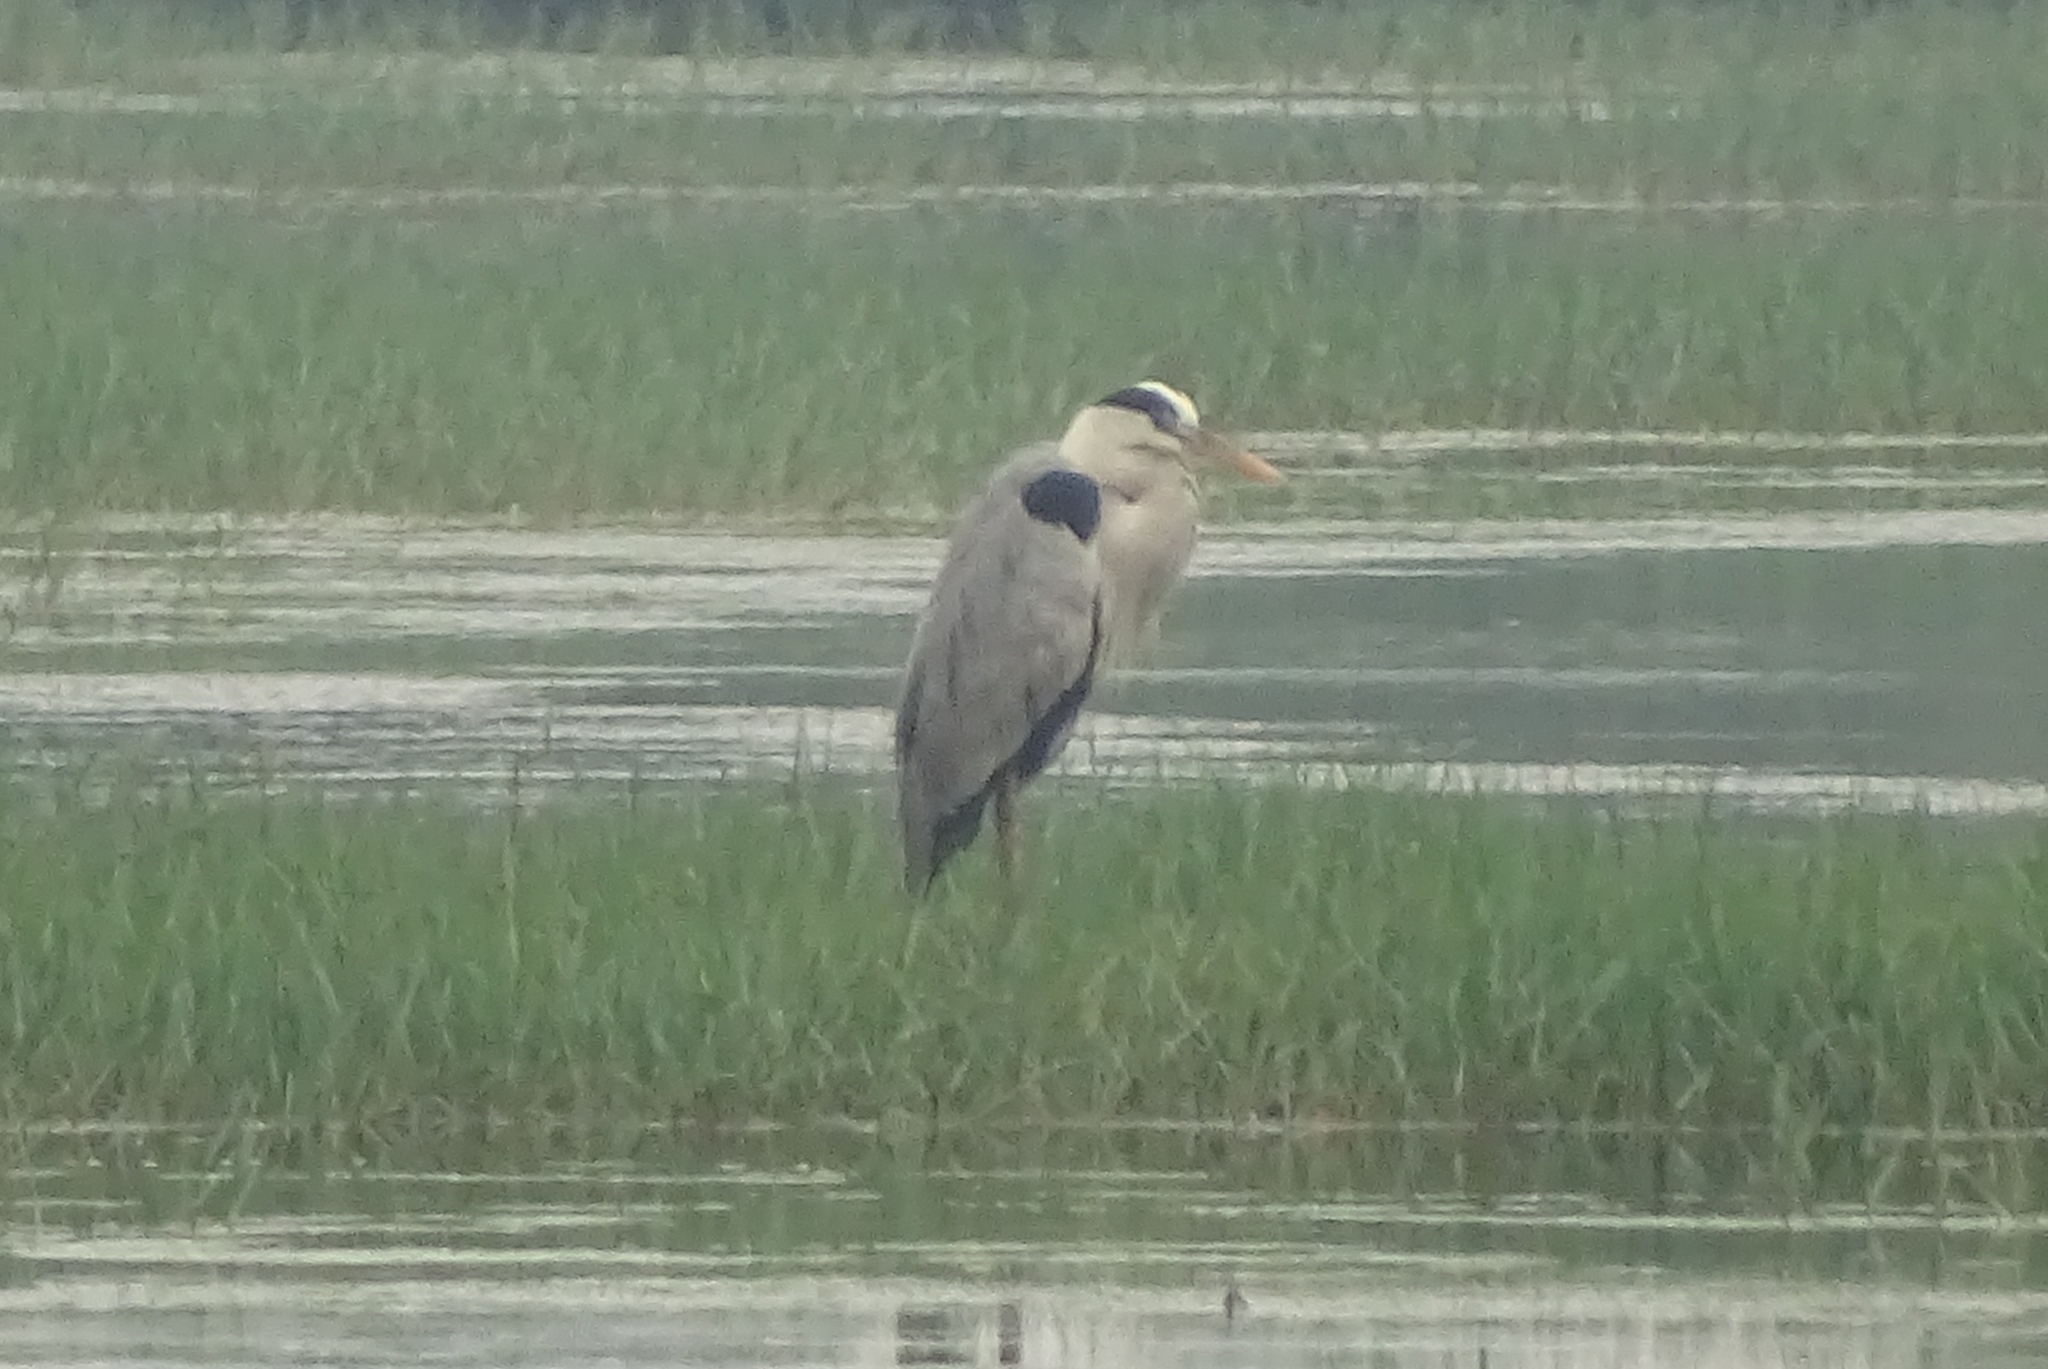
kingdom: Animalia
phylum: Chordata
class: Aves
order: Pelecaniformes
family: Ardeidae
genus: Ardea
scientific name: Ardea cinerea
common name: Grey heron
